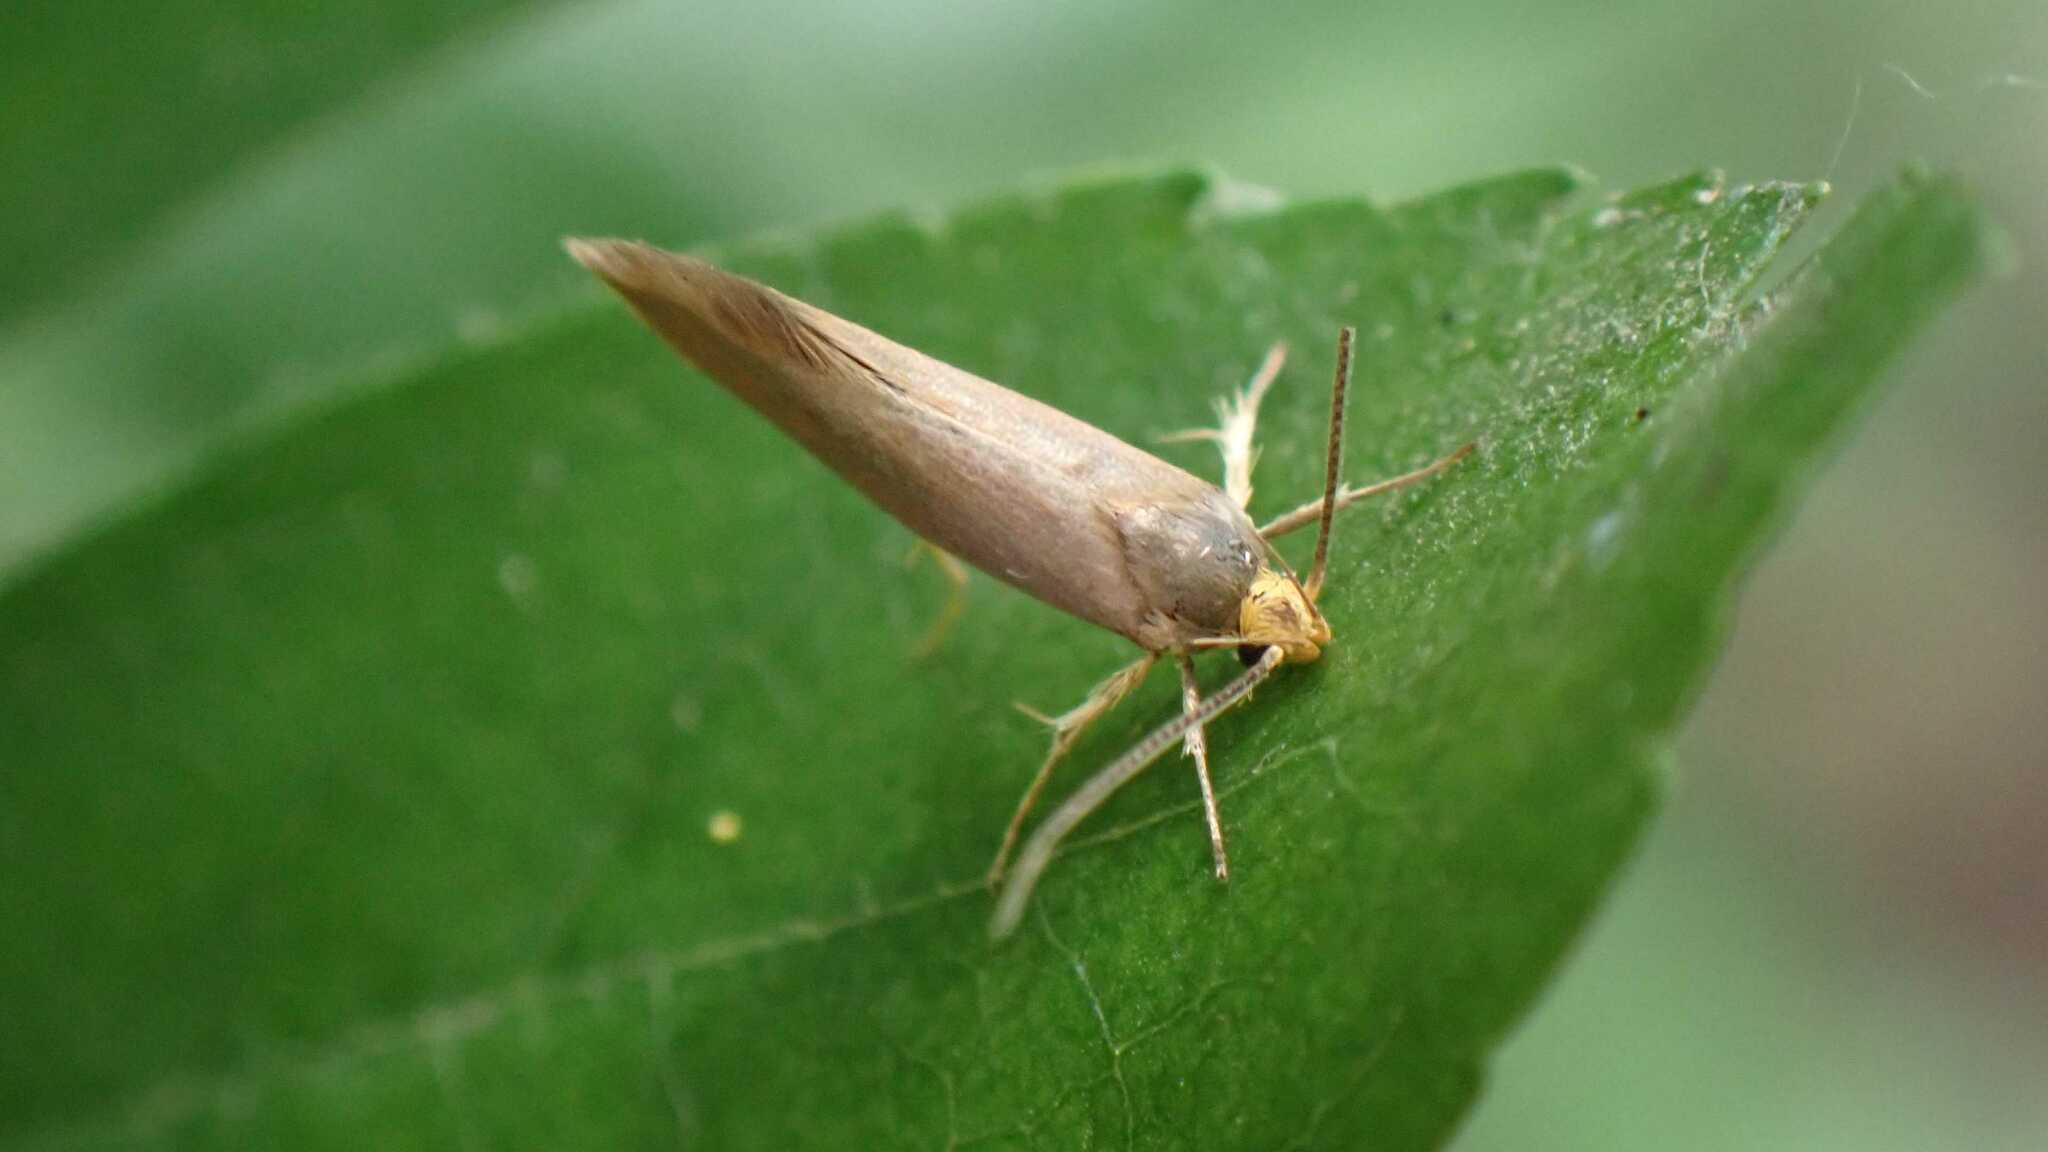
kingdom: Animalia
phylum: Arthropoda
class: Insecta
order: Lepidoptera
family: Oecophoridae
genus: Borkhausenia
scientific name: Borkhausenia Crassa unitella
